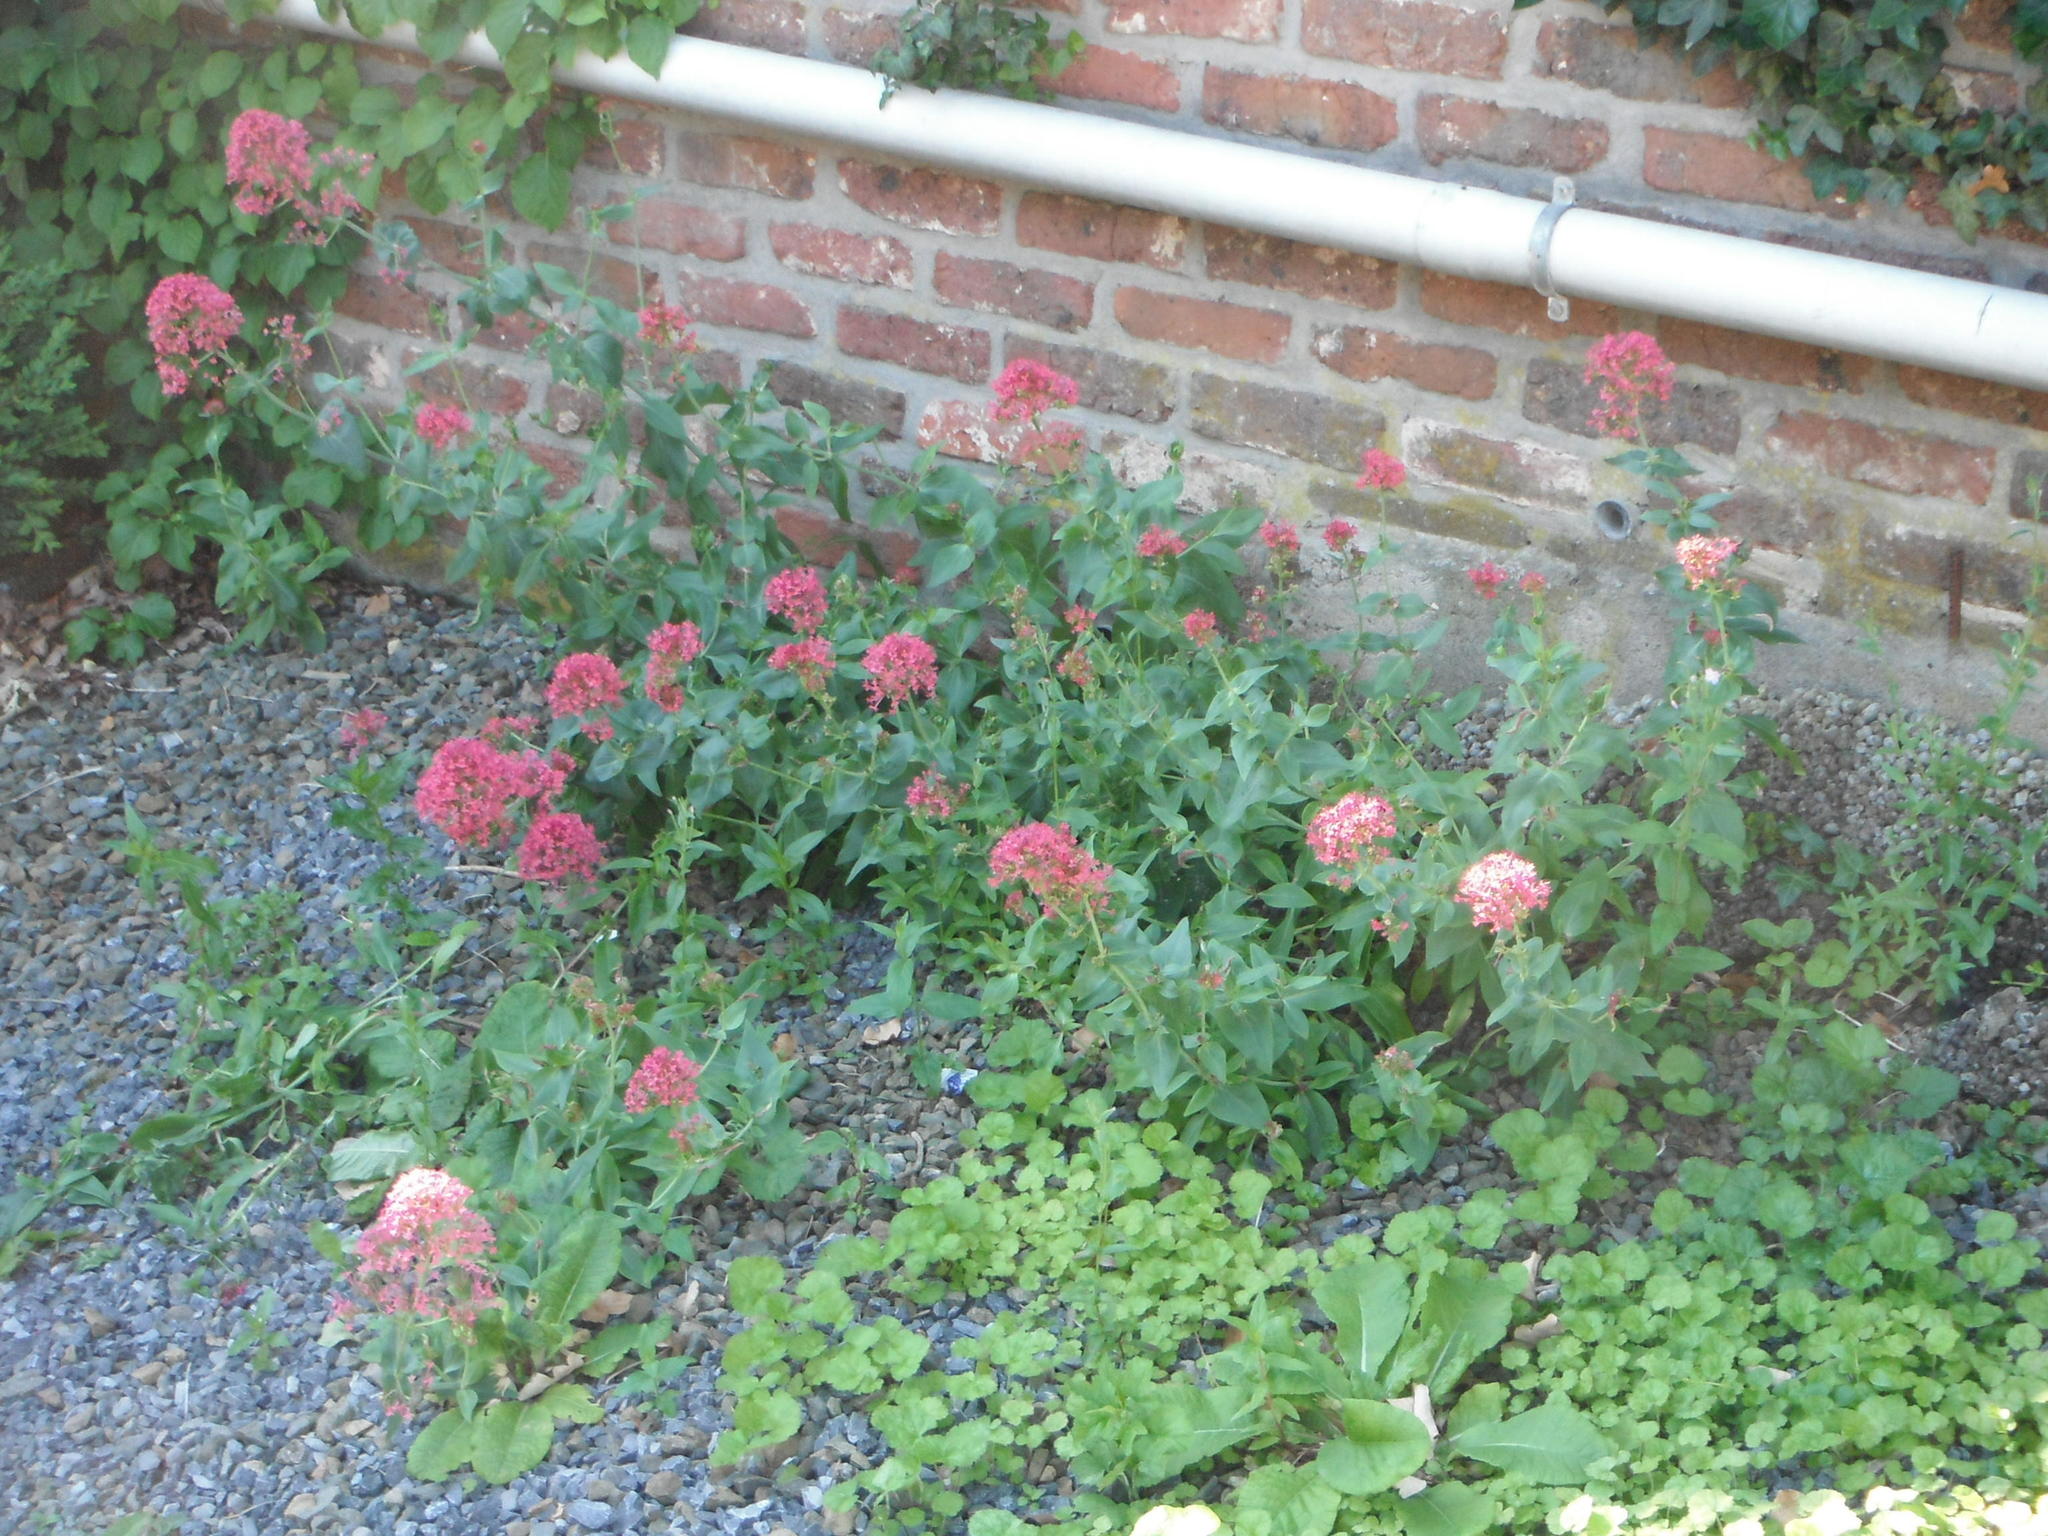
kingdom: Plantae
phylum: Tracheophyta
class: Magnoliopsida
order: Dipsacales
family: Caprifoliaceae
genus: Centranthus
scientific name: Centranthus ruber
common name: Red valerian
